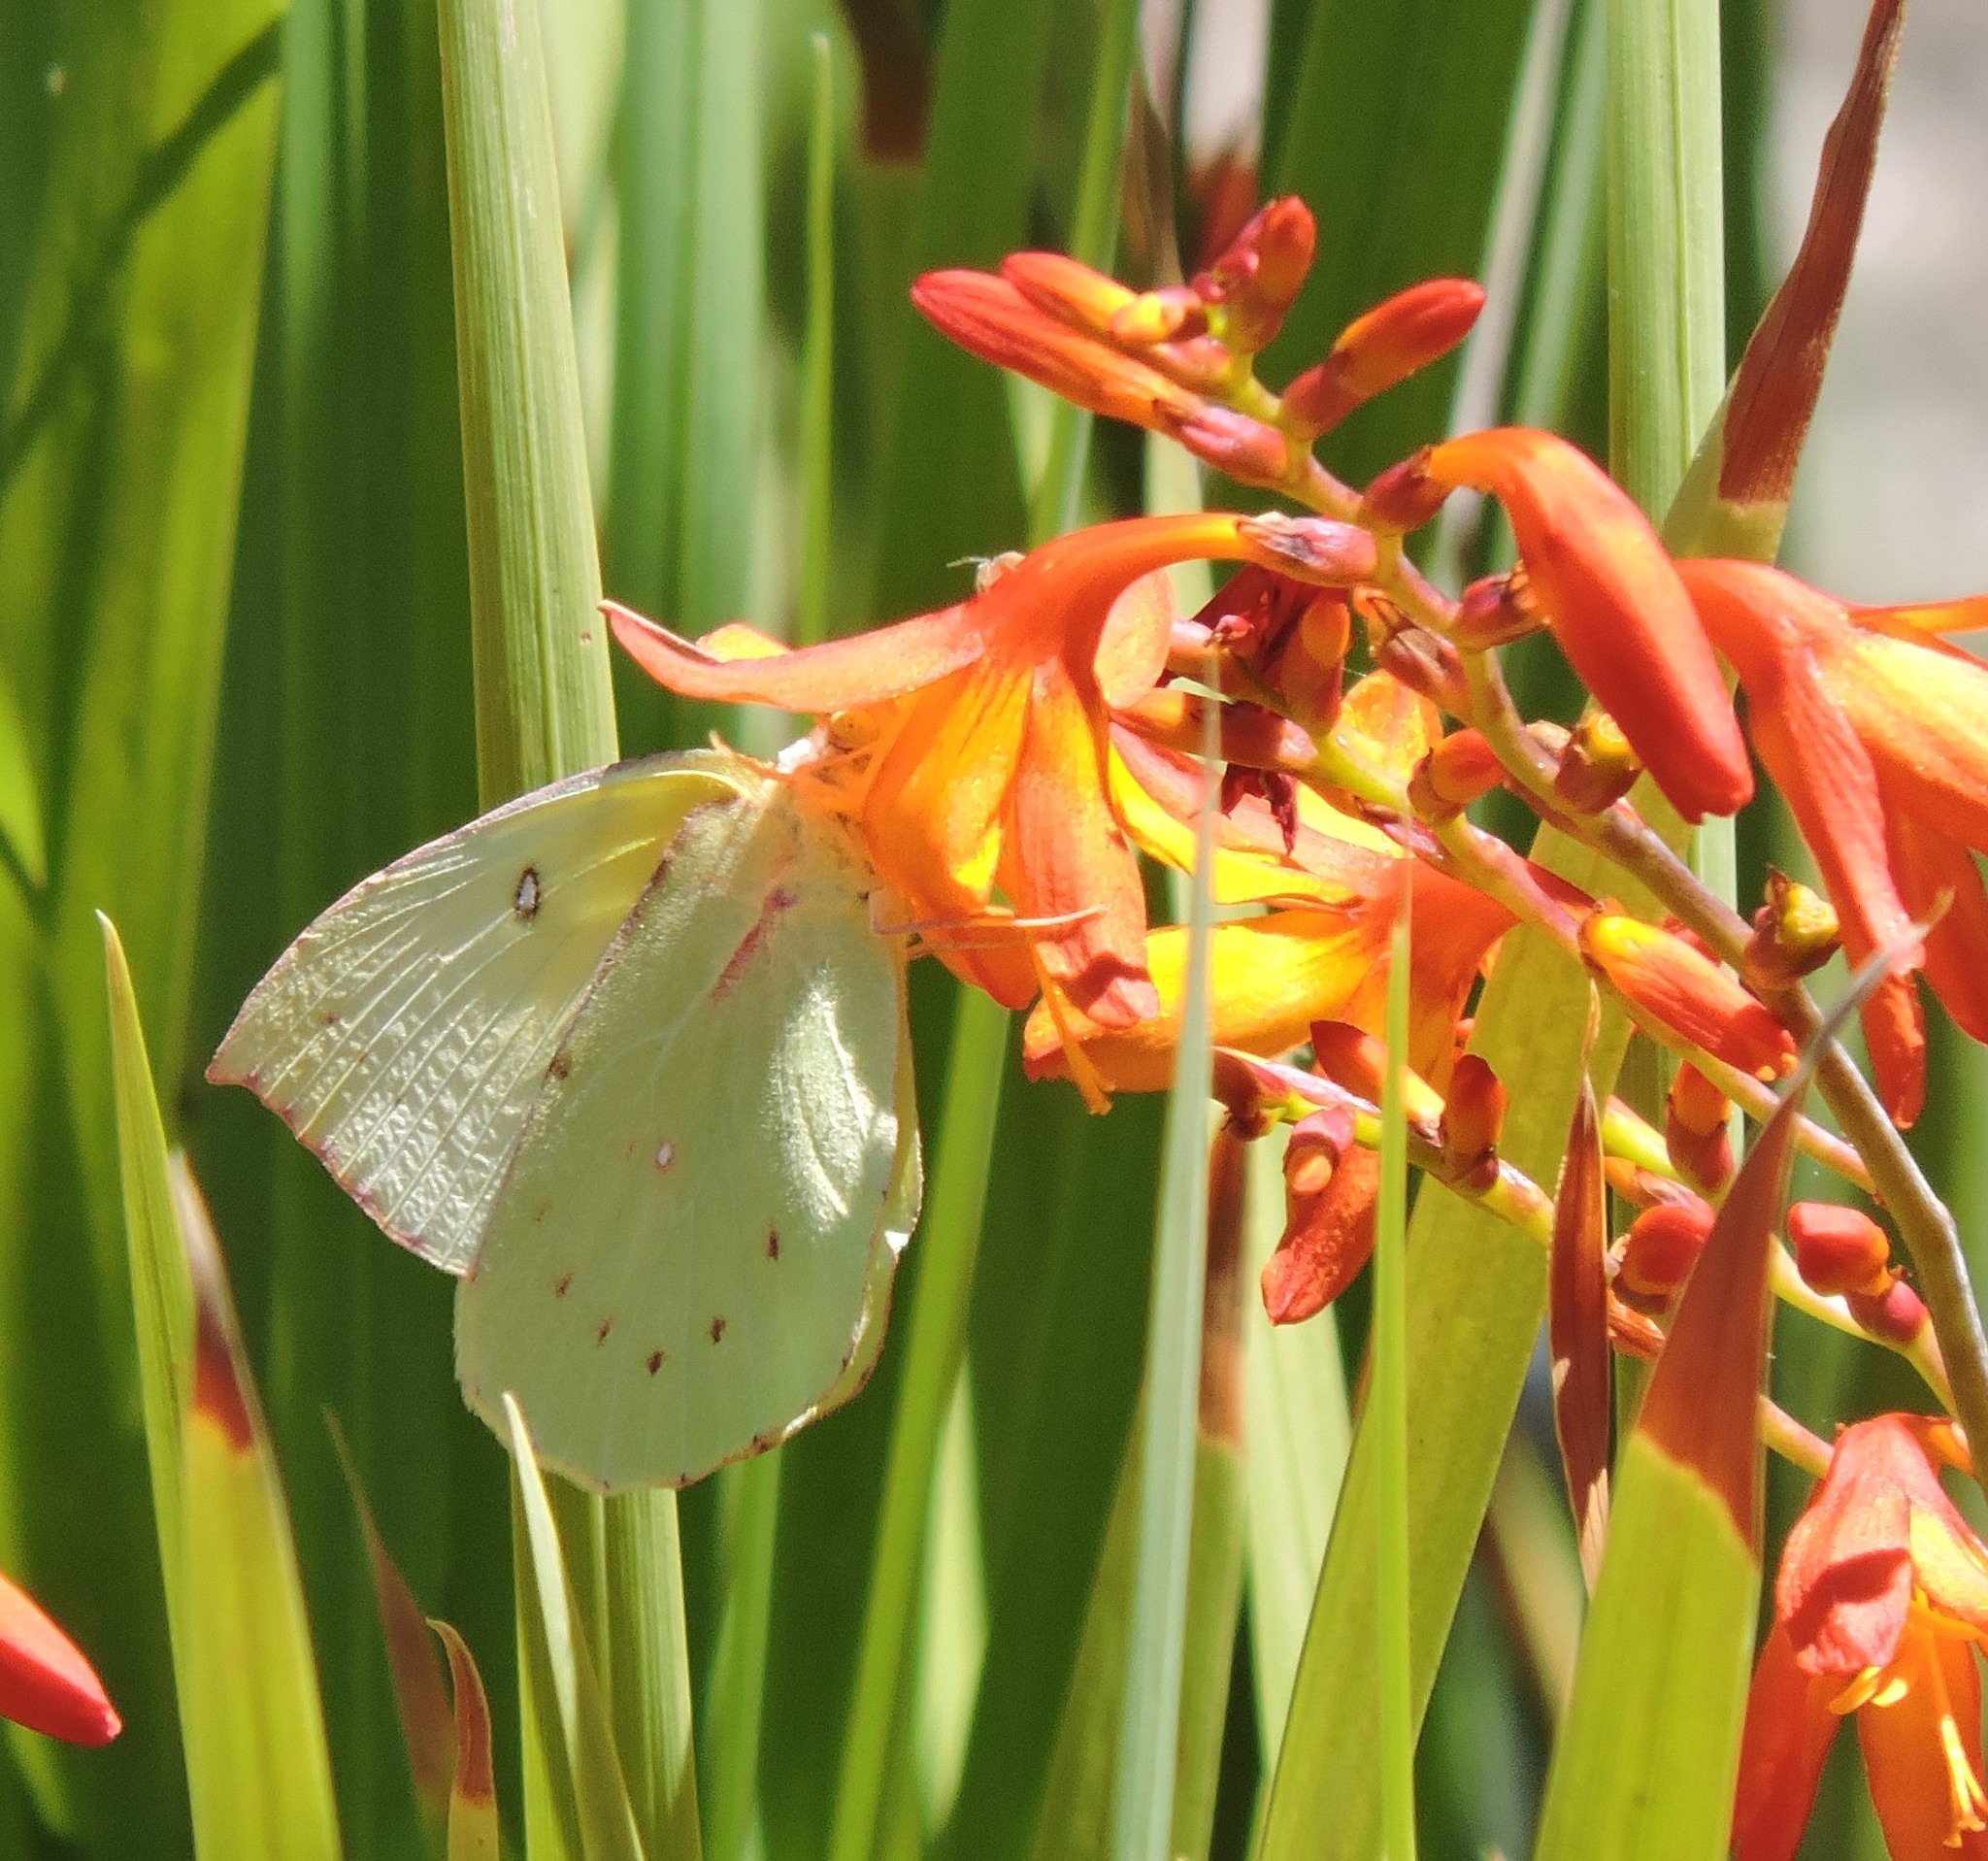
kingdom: Animalia
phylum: Arthropoda
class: Insecta
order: Lepidoptera
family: Pieridae
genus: Zerene
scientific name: Zerene eurydice
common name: California dogface
